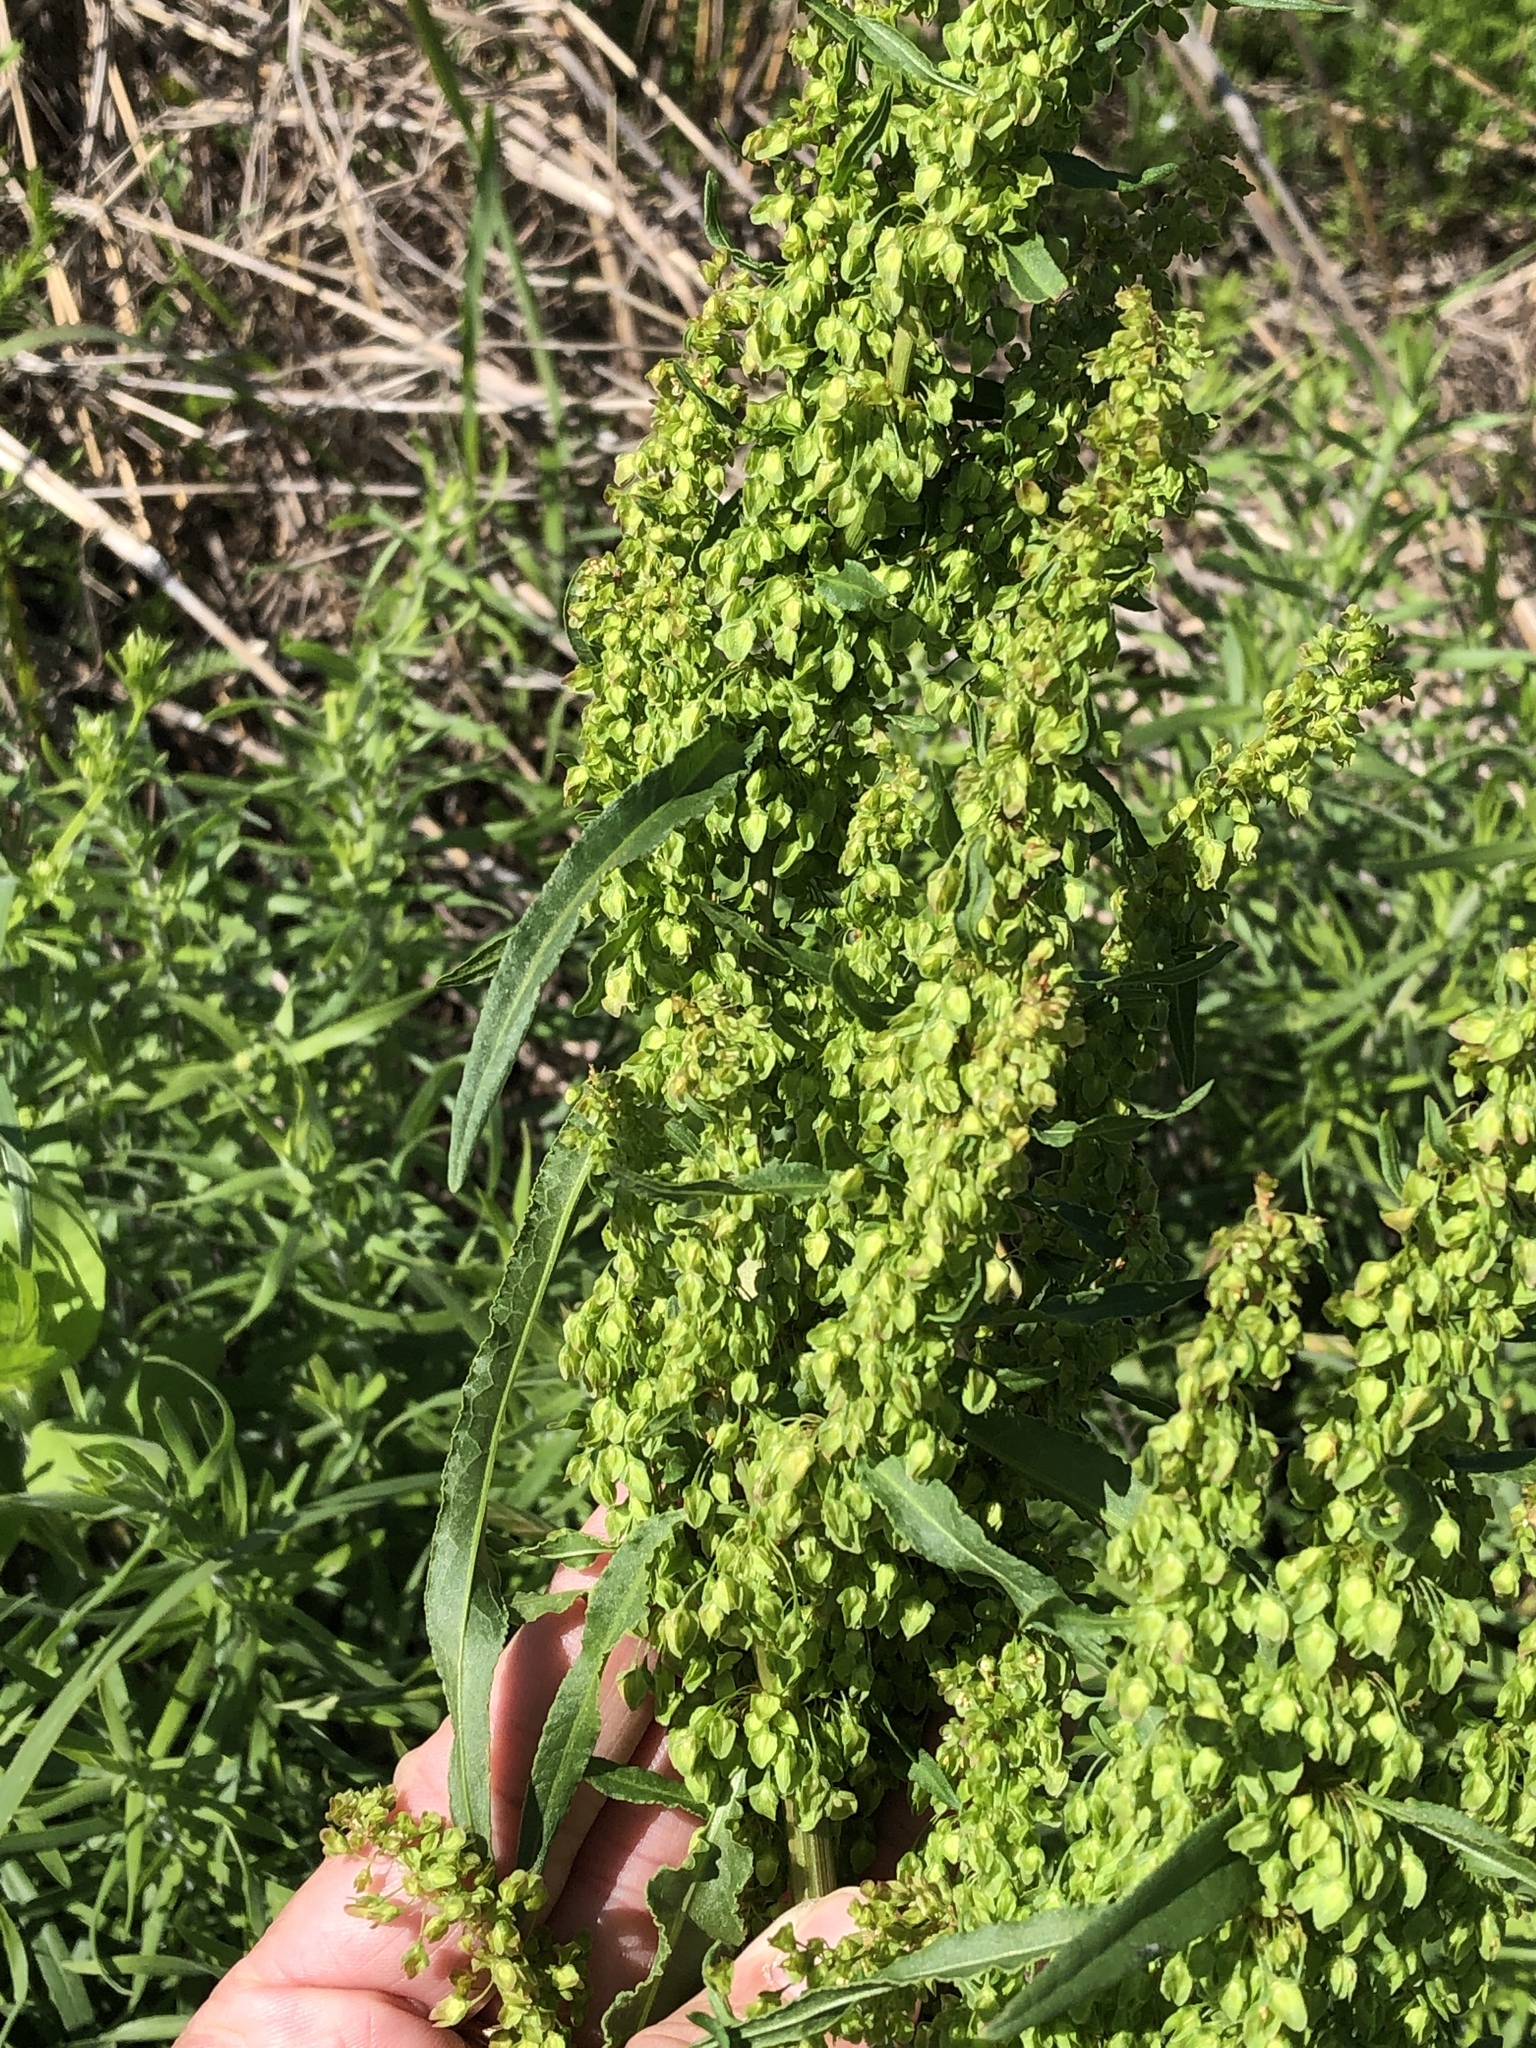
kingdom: Plantae
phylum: Tracheophyta
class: Magnoliopsida
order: Caryophyllales
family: Polygonaceae
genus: Rumex
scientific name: Rumex crispus
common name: Curled dock
